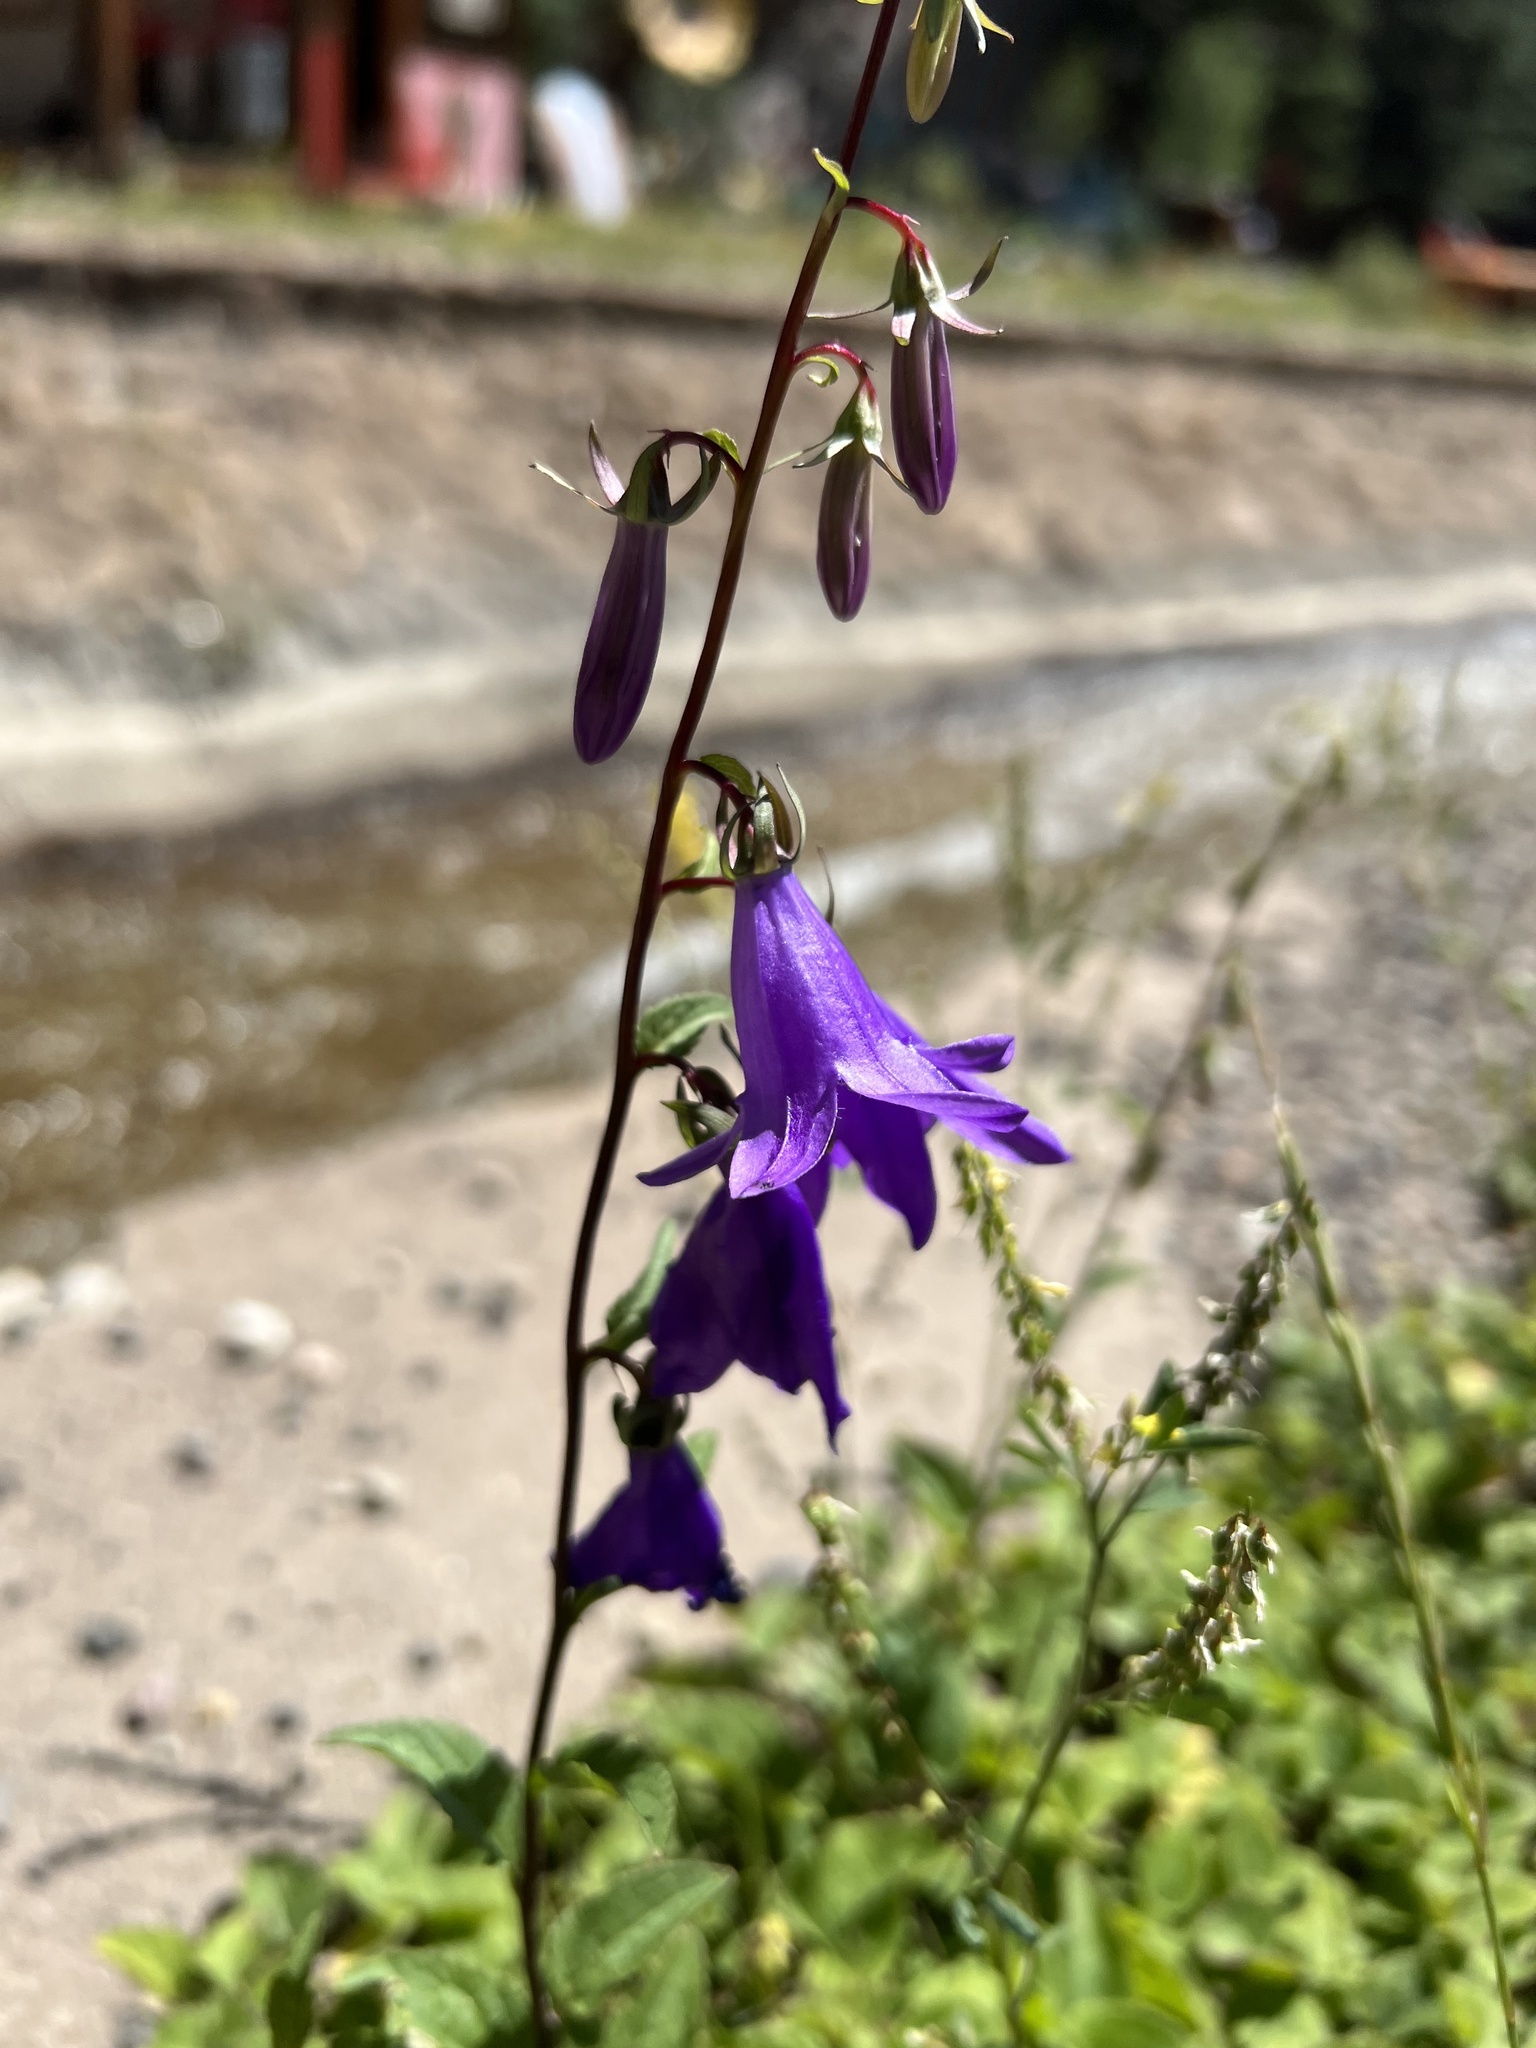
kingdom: Plantae
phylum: Tracheophyta
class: Magnoliopsida
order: Asterales
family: Campanulaceae
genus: Campanula
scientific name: Campanula rapunculoides
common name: Creeping bellflower
